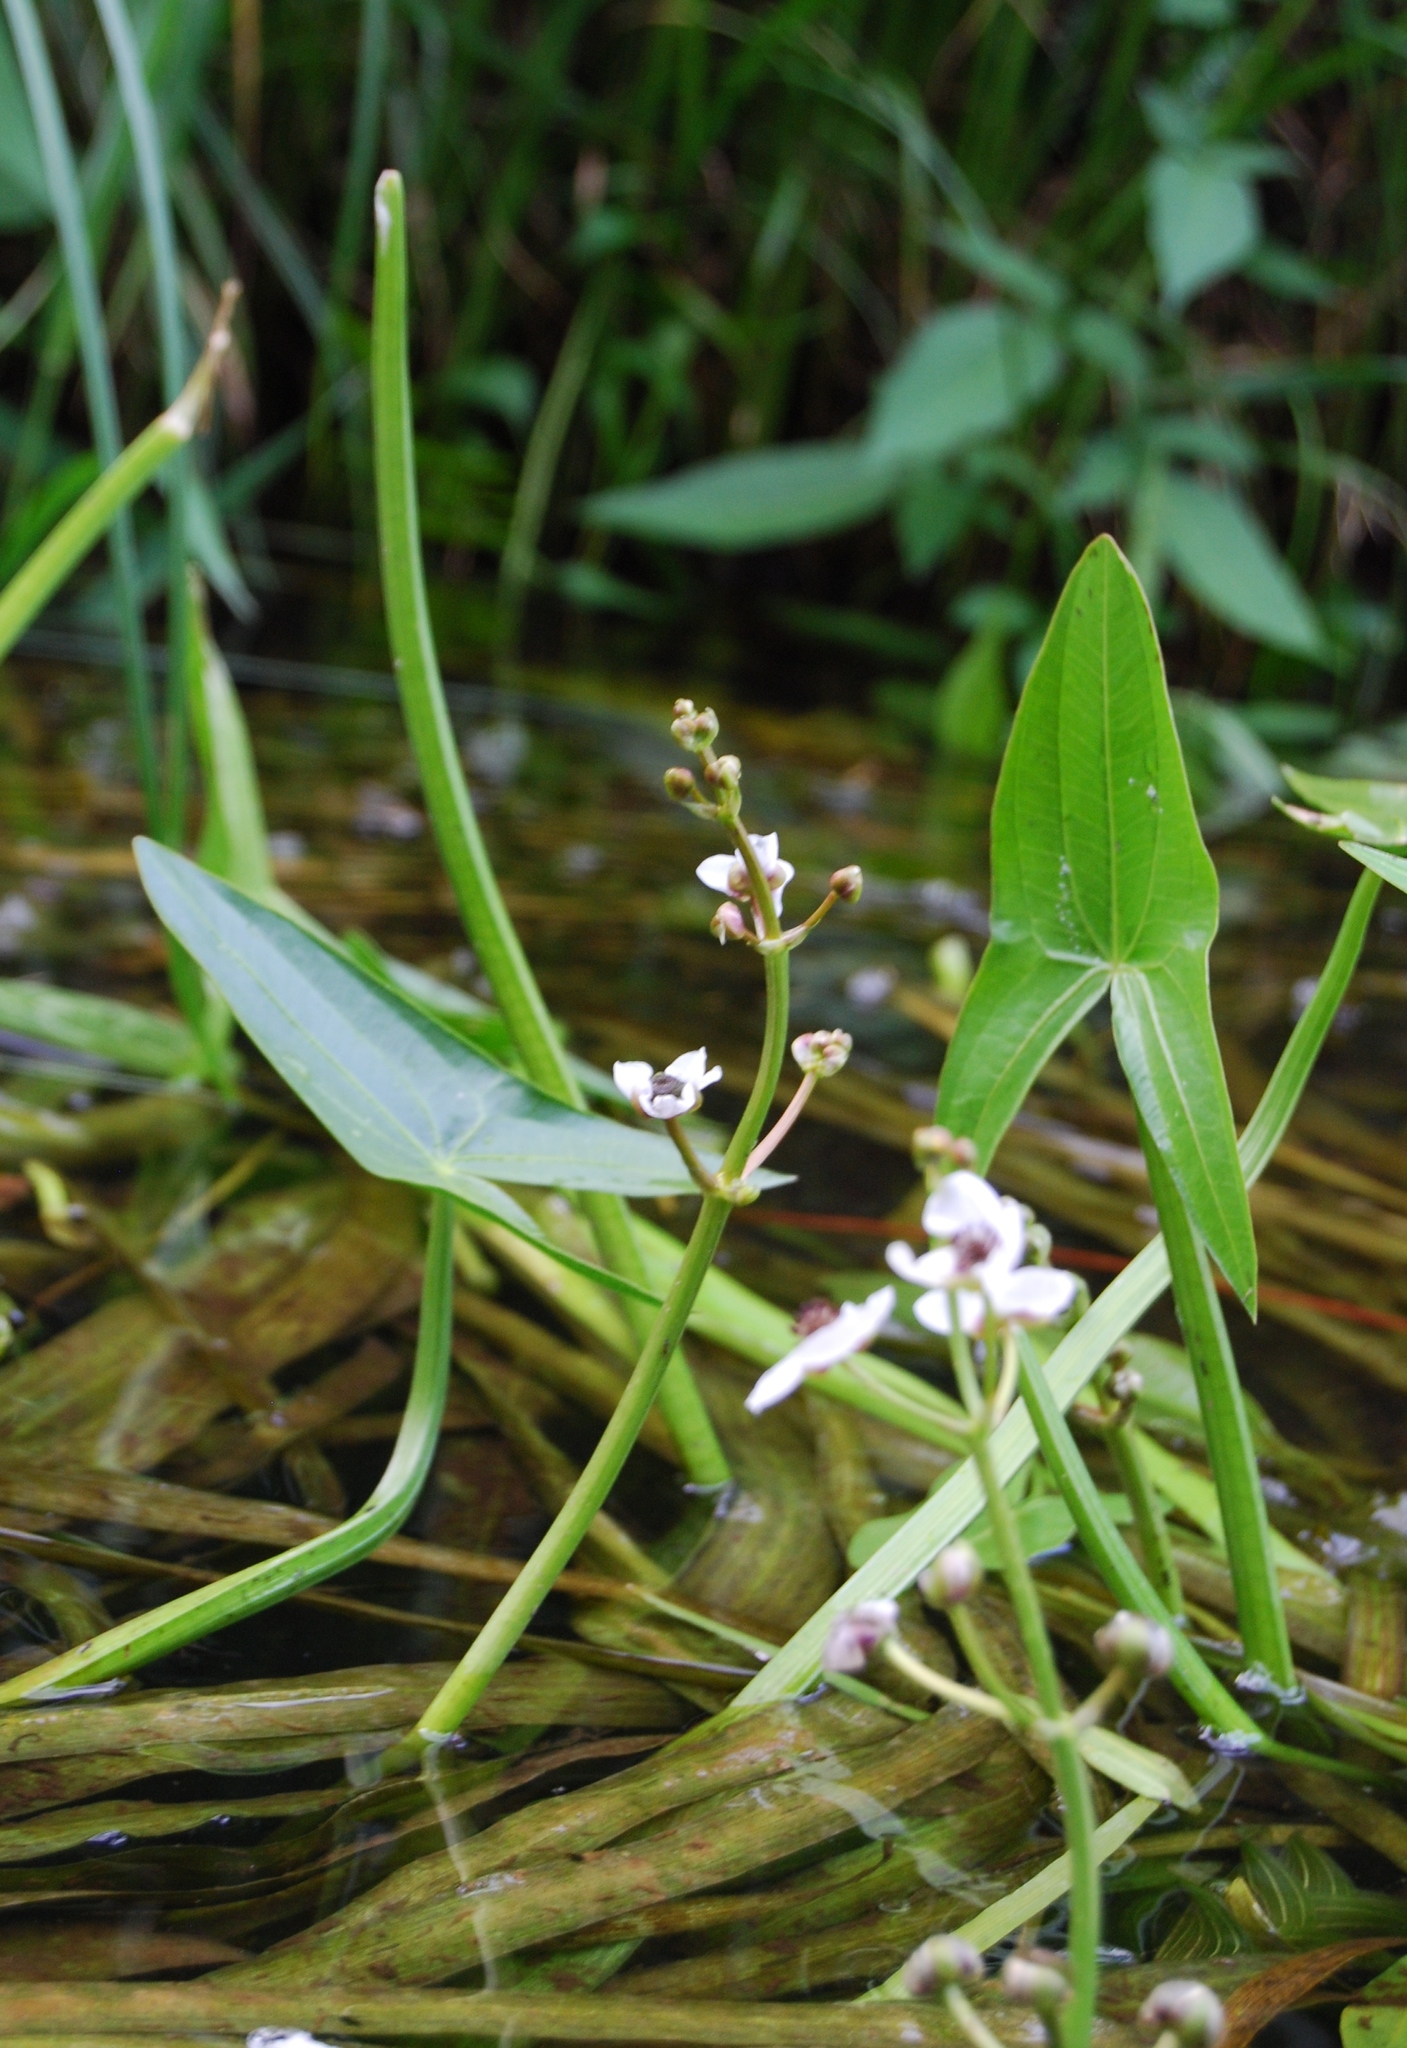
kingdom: Plantae
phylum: Tracheophyta
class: Liliopsida
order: Alismatales
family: Alismataceae
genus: Sagittaria
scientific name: Sagittaria sagittifolia
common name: Arrowhead
